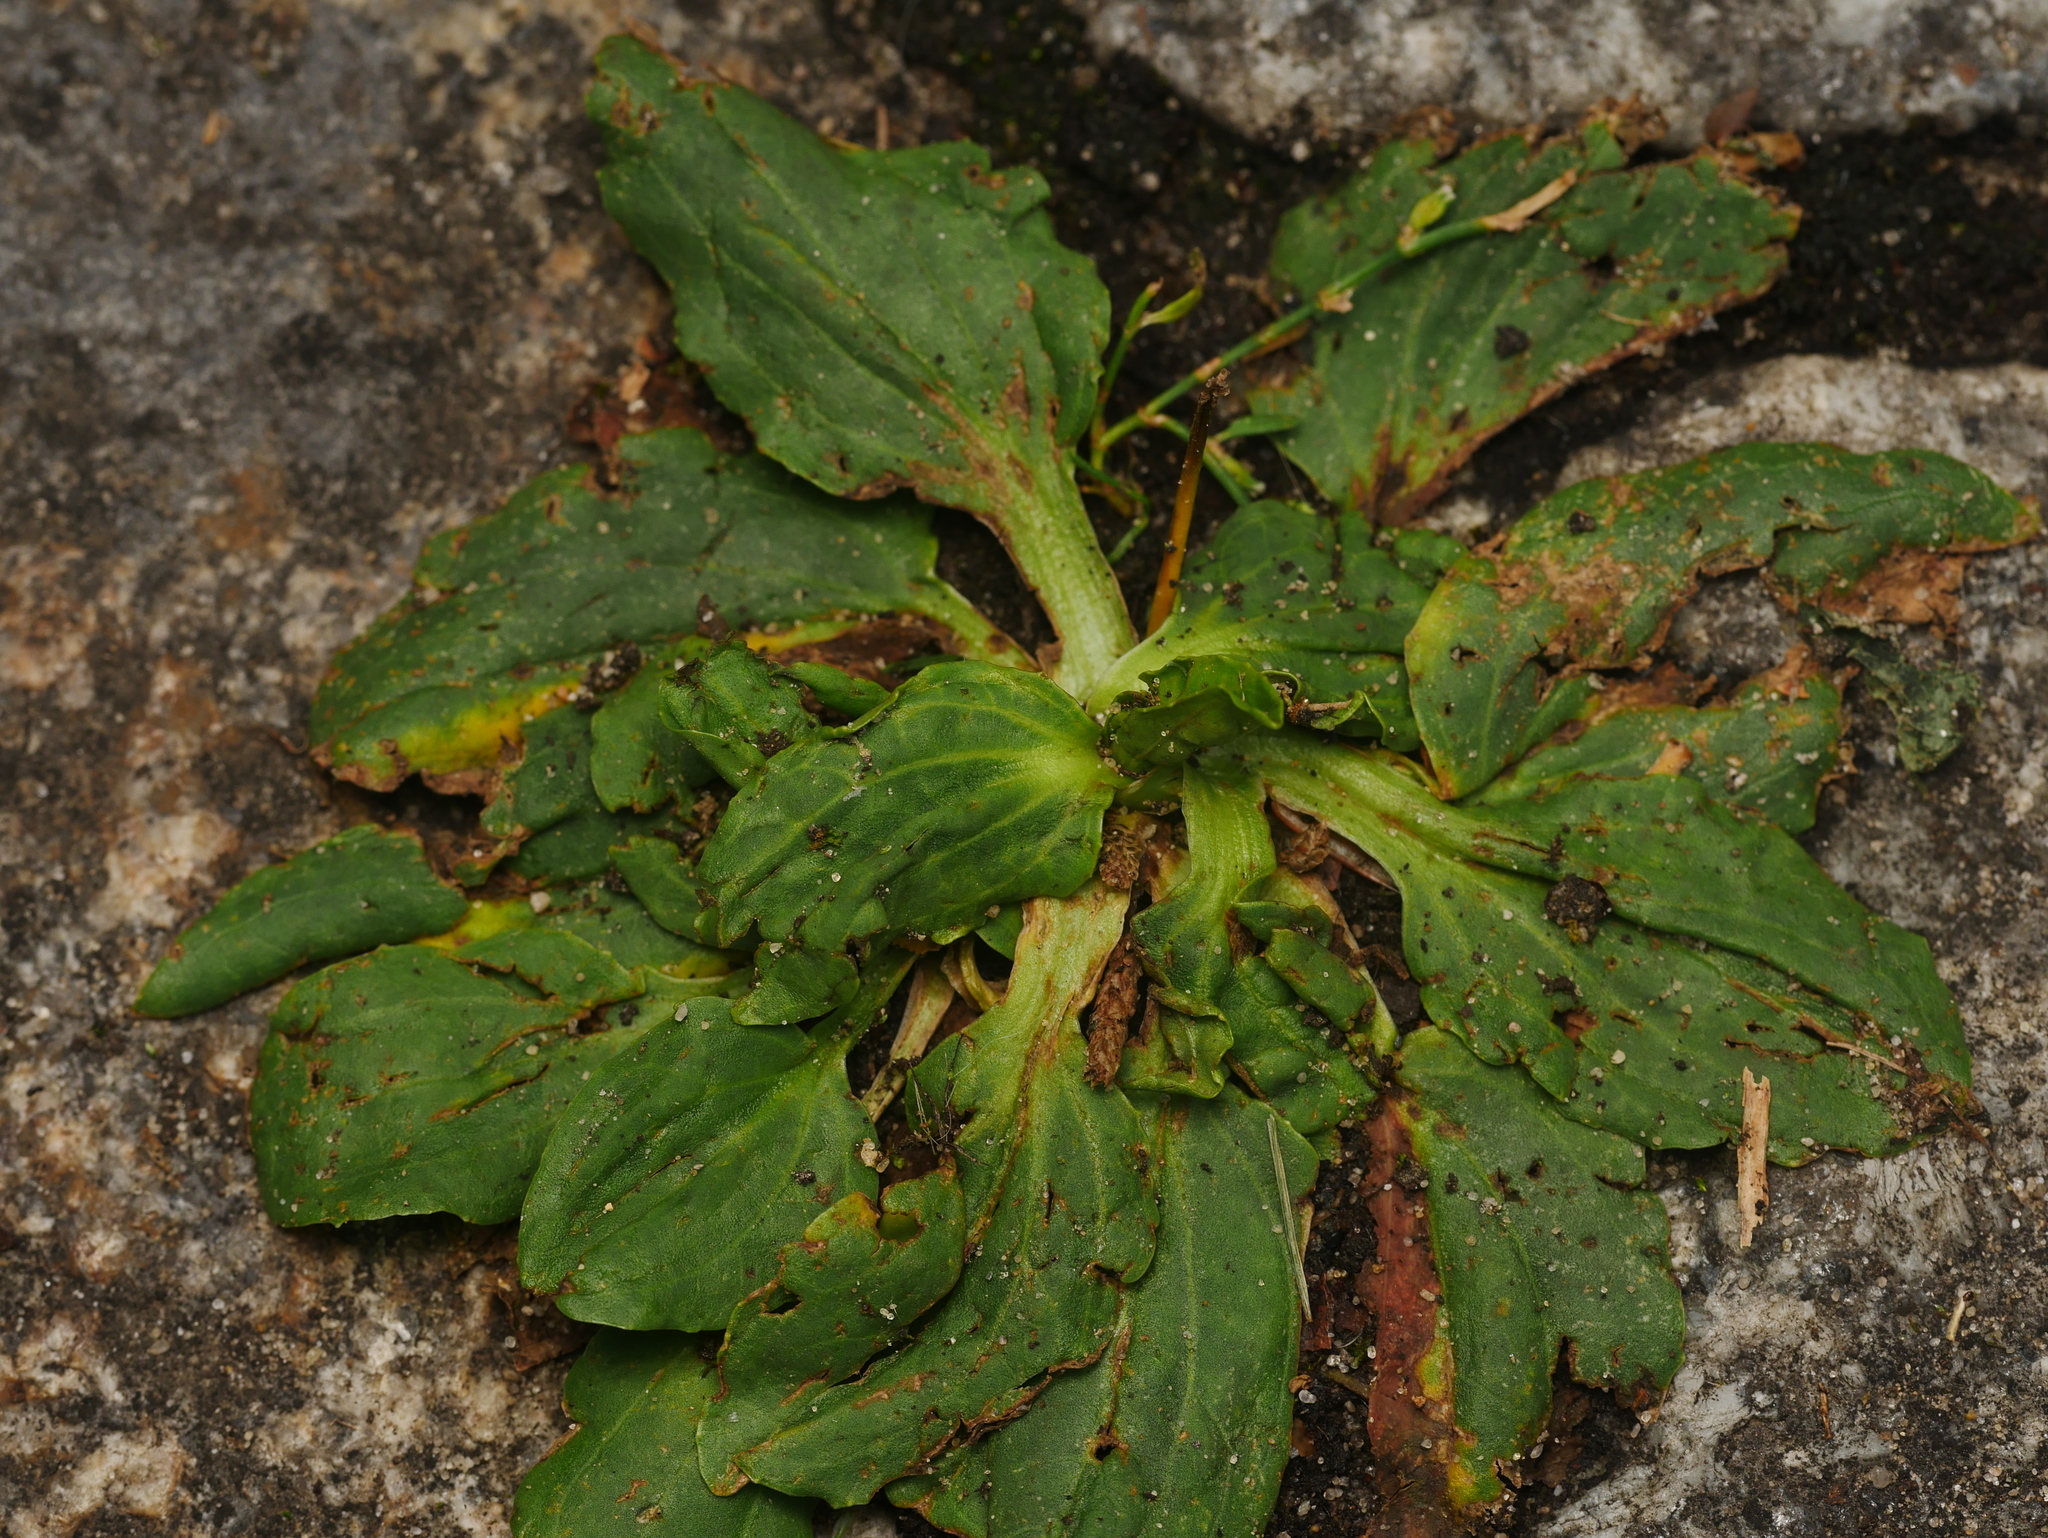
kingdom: Plantae
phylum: Tracheophyta
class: Magnoliopsida
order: Lamiales
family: Plantaginaceae
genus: Plantago
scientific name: Plantago major
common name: Common plantain
